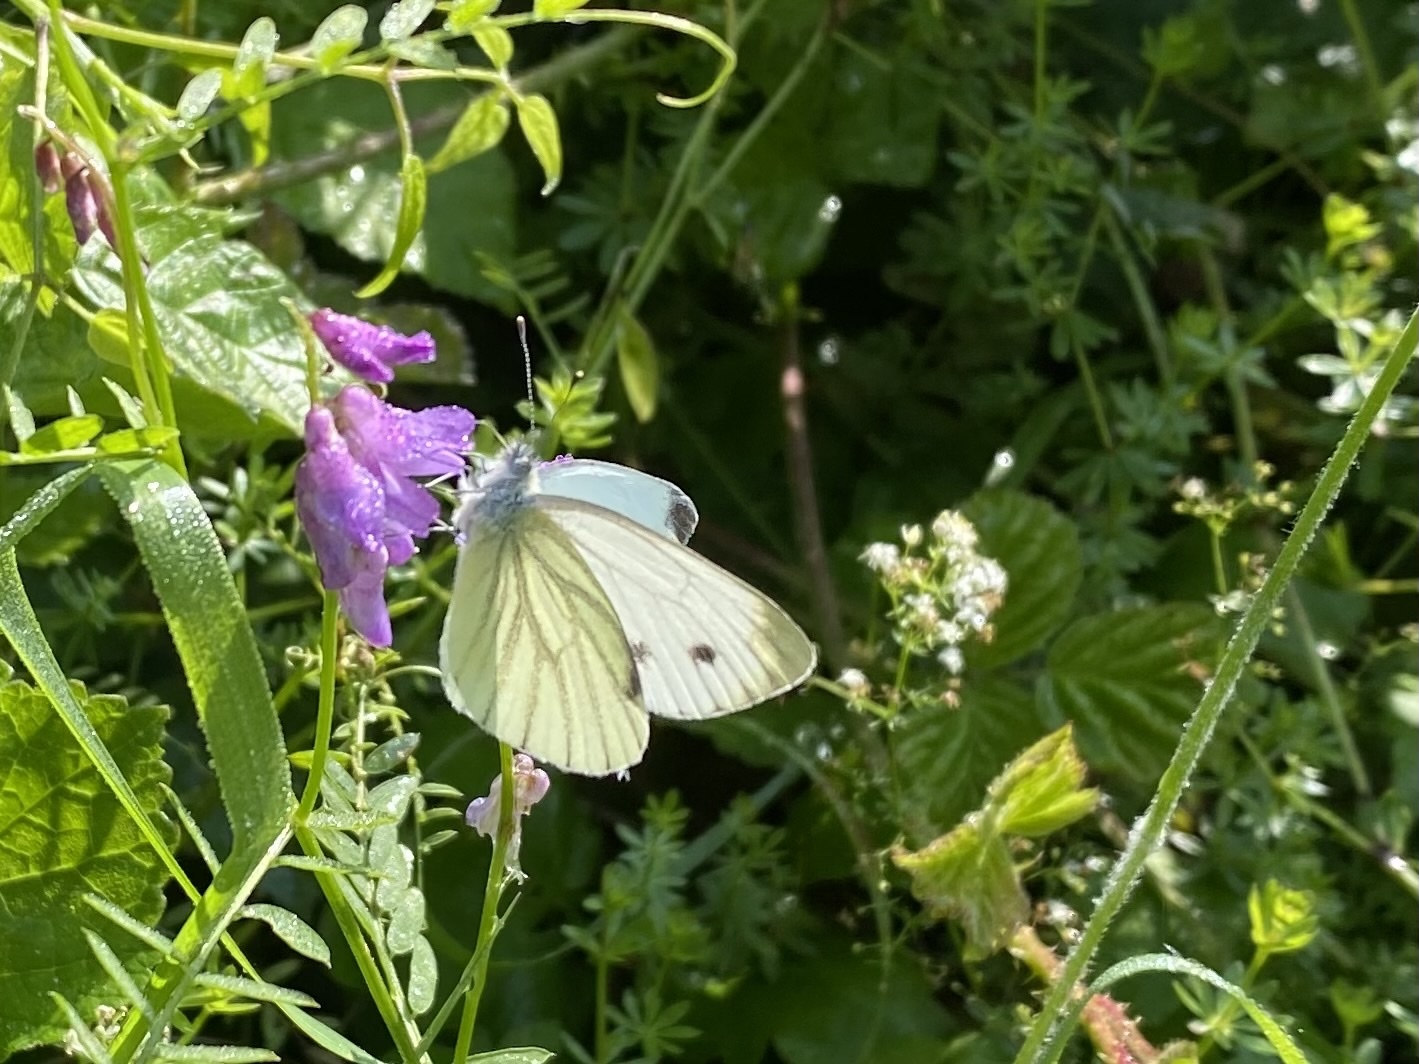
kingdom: Animalia
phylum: Arthropoda
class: Insecta
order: Lepidoptera
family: Pieridae
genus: Pieris
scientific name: Pieris napi
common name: Green-veined white
